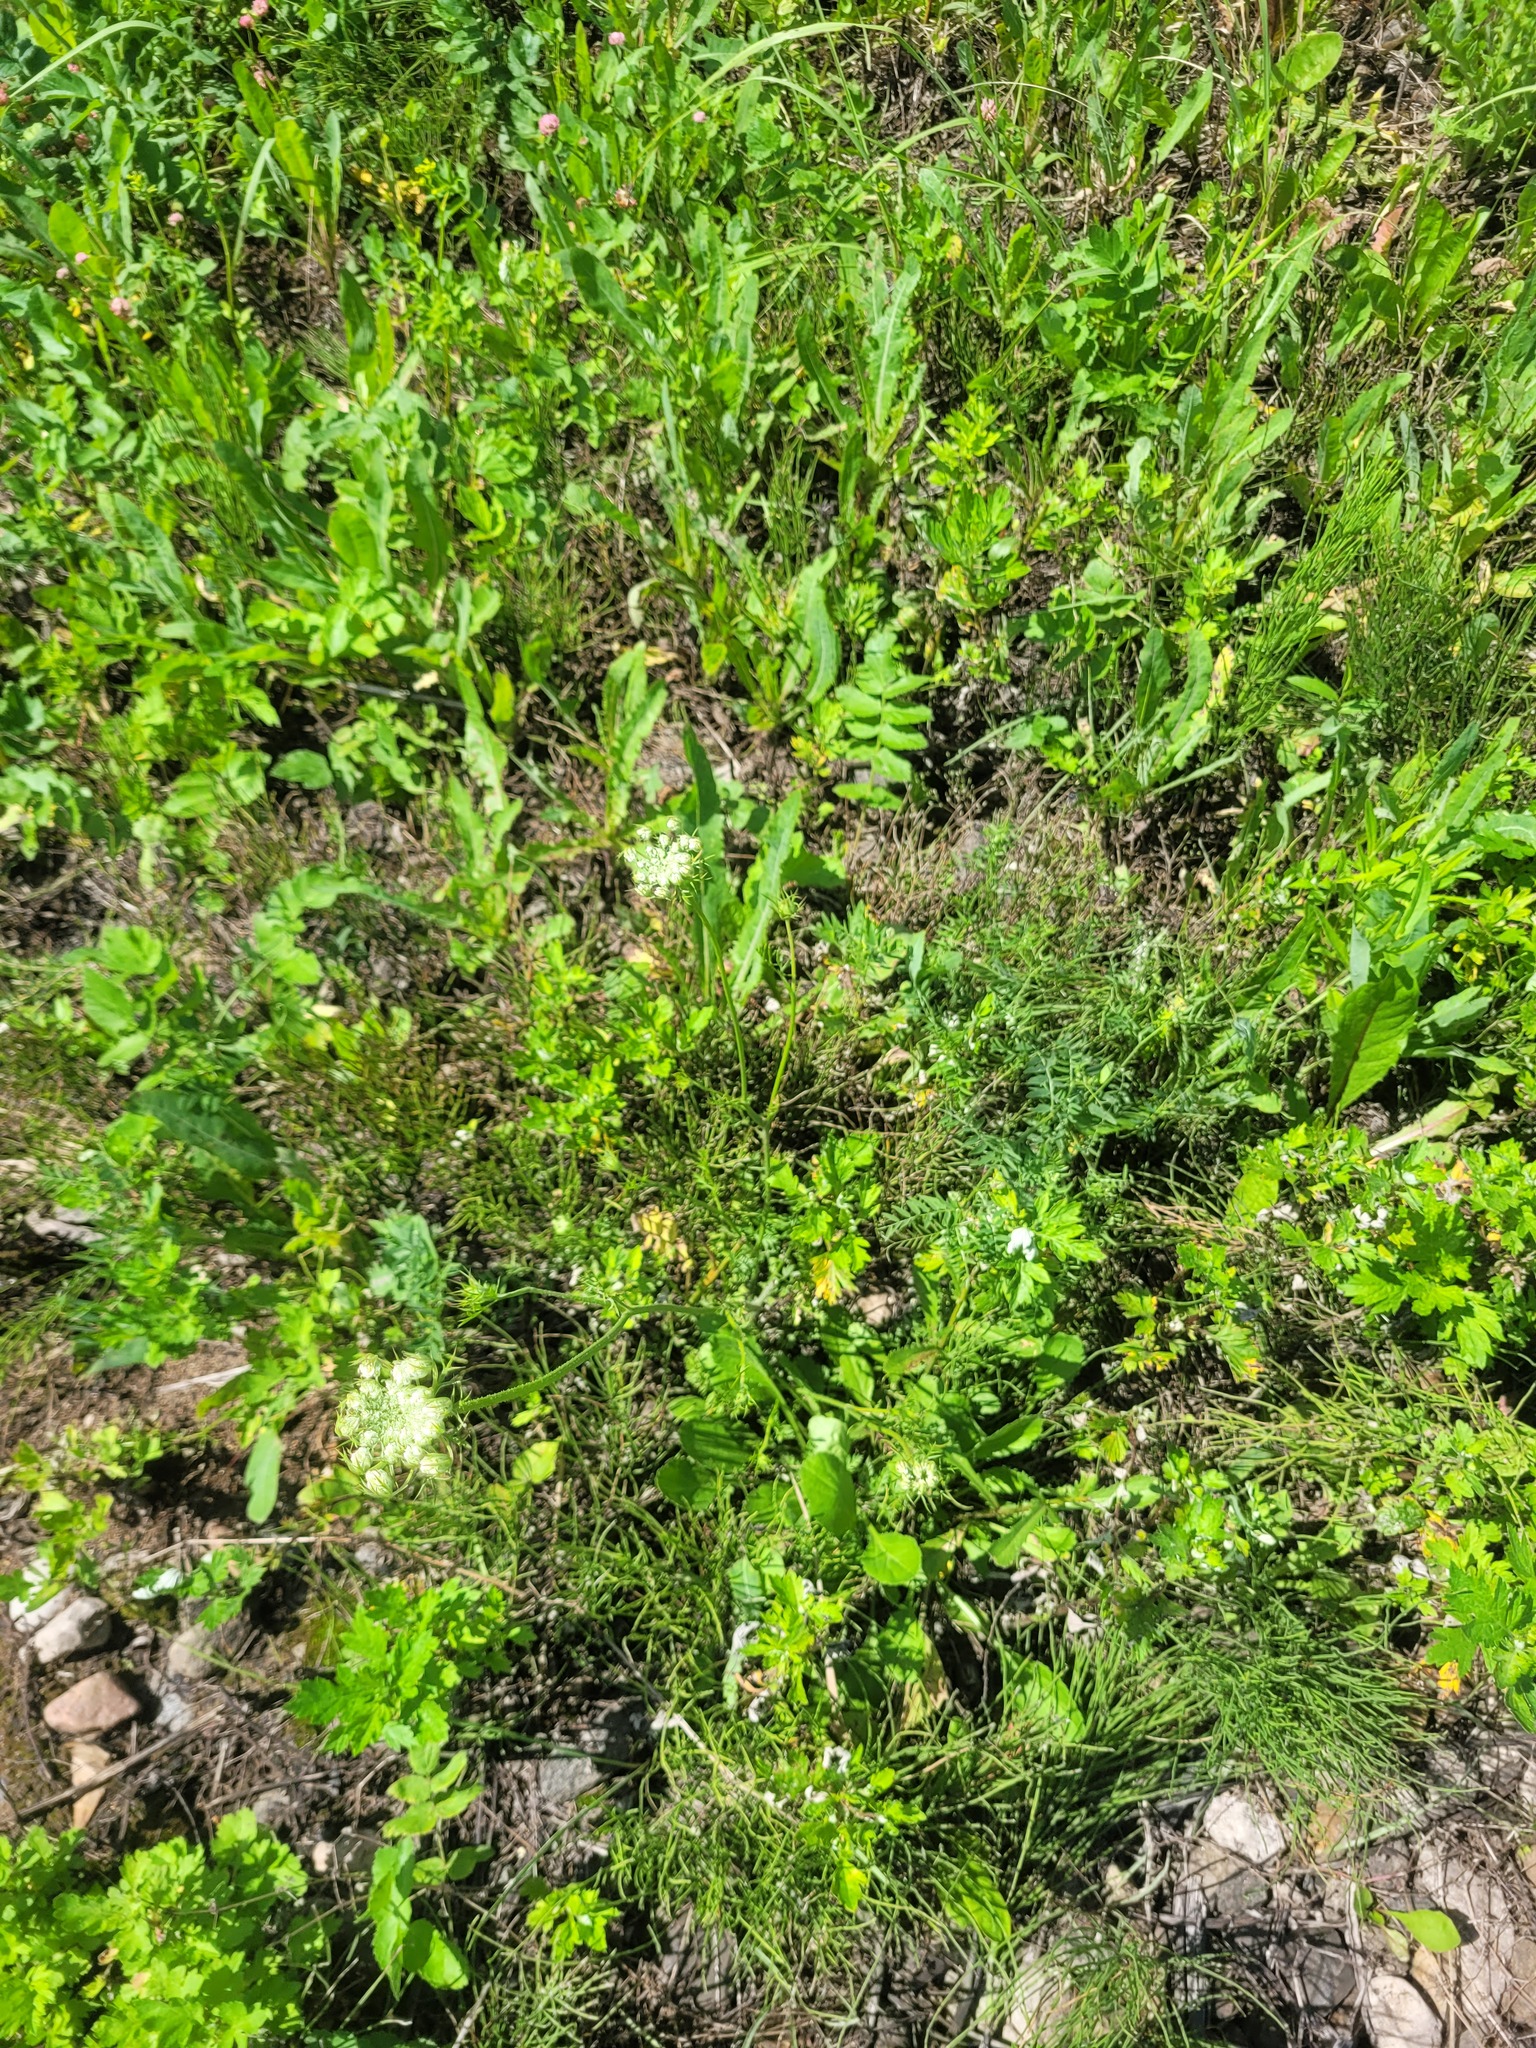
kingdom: Plantae
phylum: Tracheophyta
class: Magnoliopsida
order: Apiales
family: Apiaceae
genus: Daucus
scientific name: Daucus carota
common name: Wild carrot
